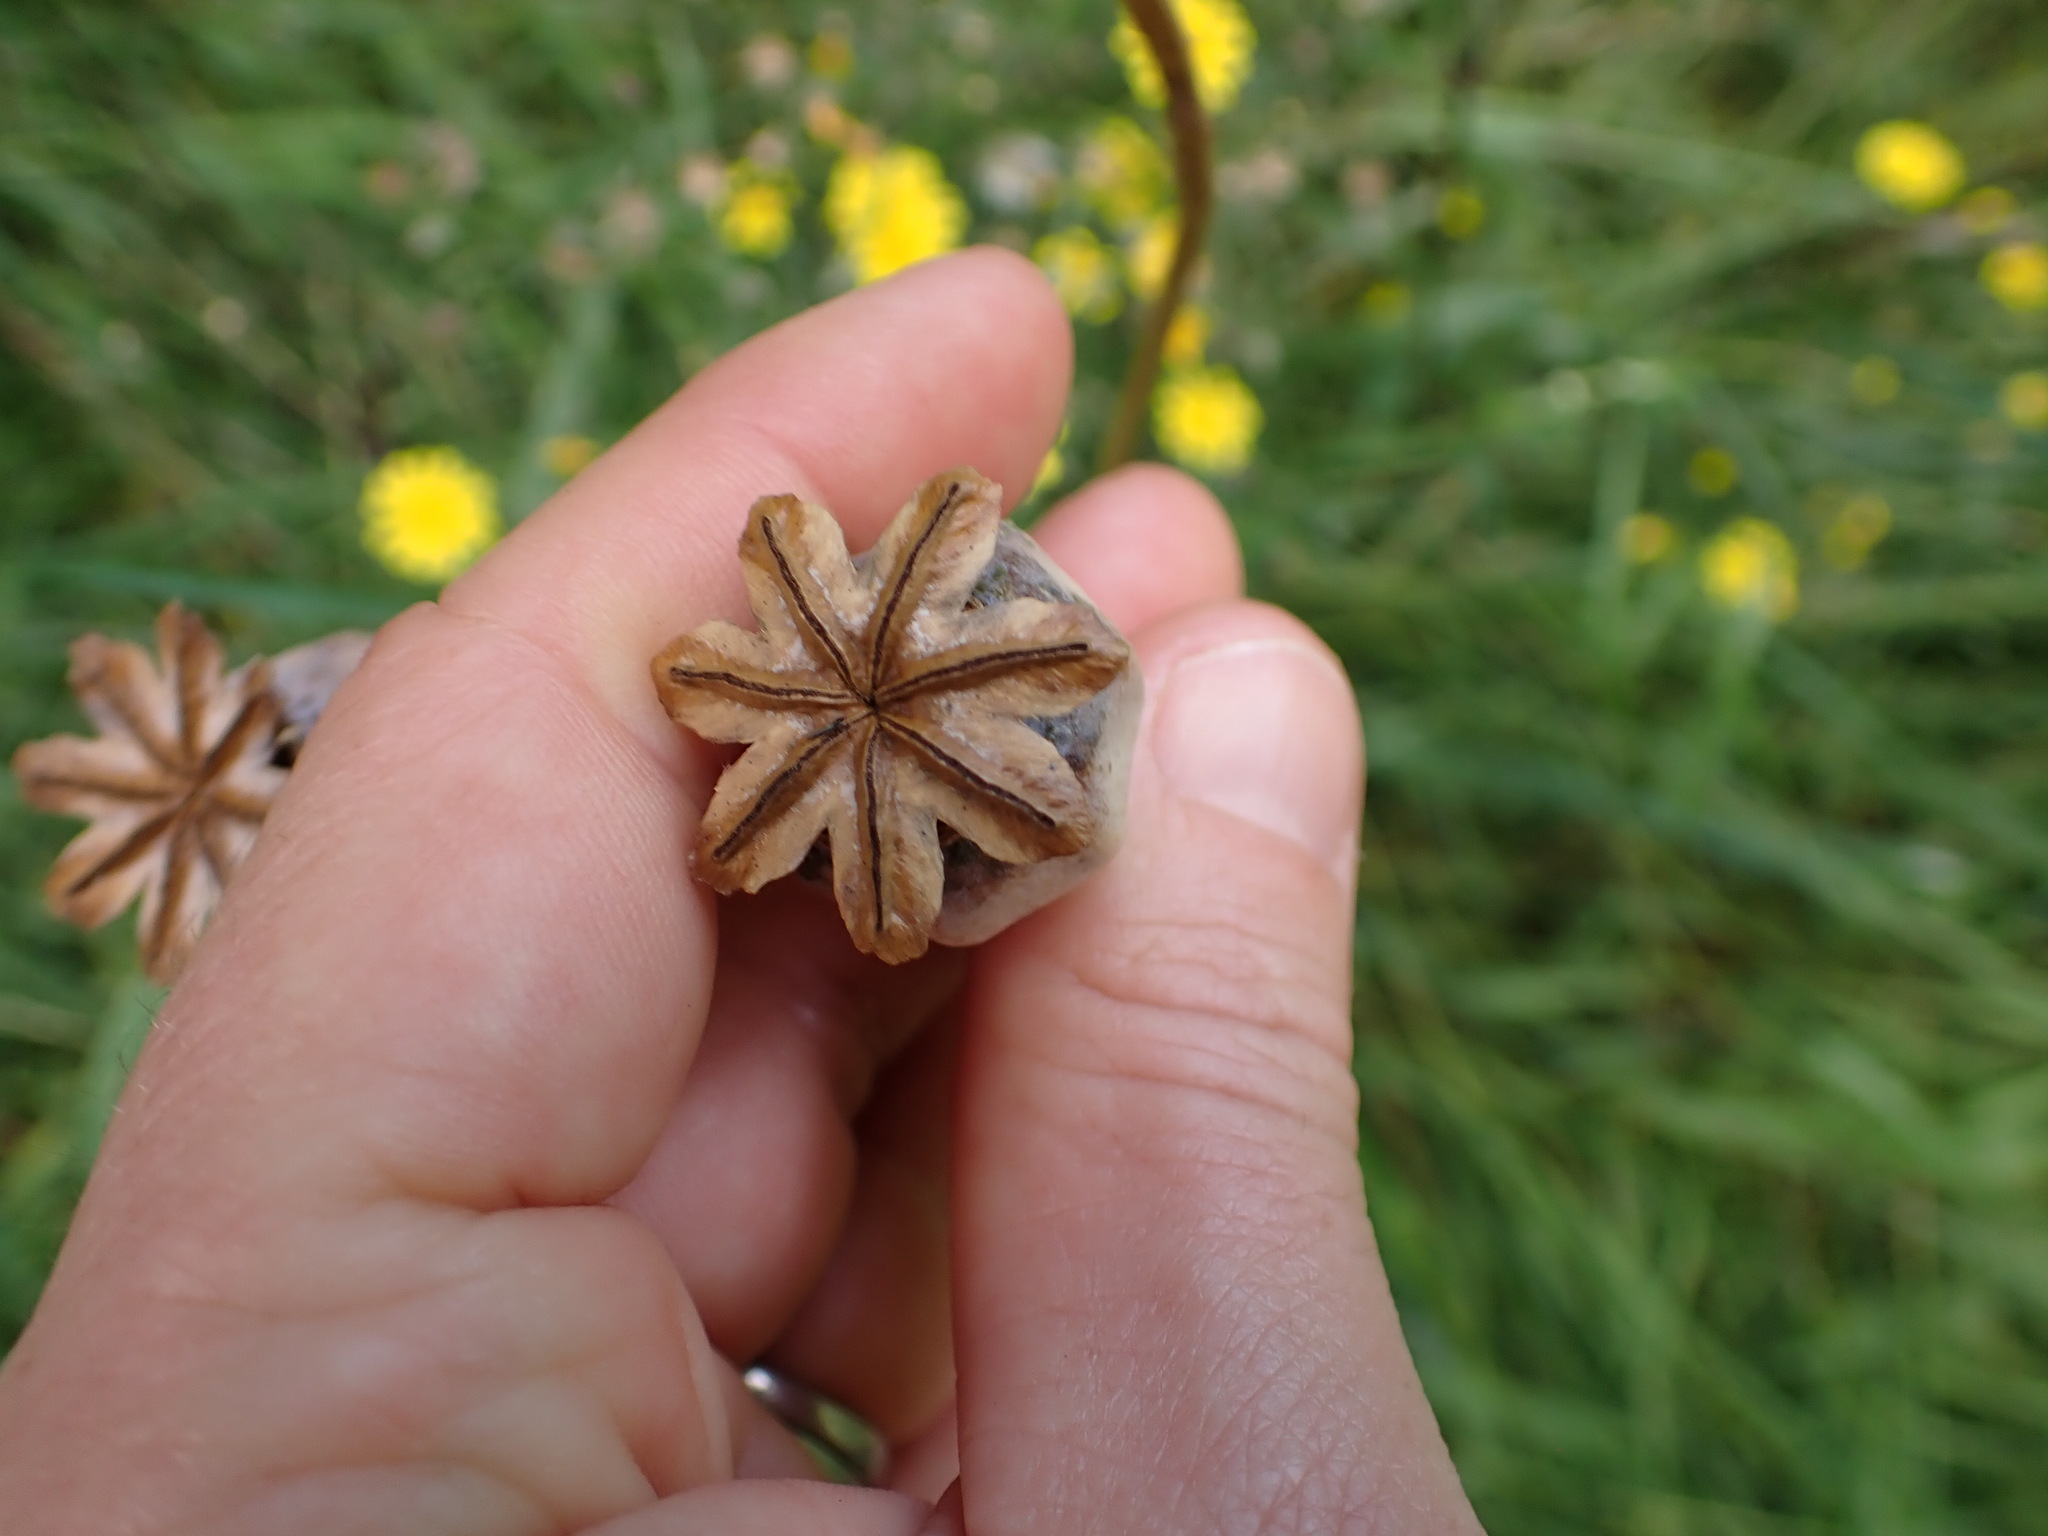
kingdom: Plantae
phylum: Tracheophyta
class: Magnoliopsida
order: Ranunculales
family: Papaveraceae
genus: Papaver
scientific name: Papaver somniferum
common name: Opium poppy
